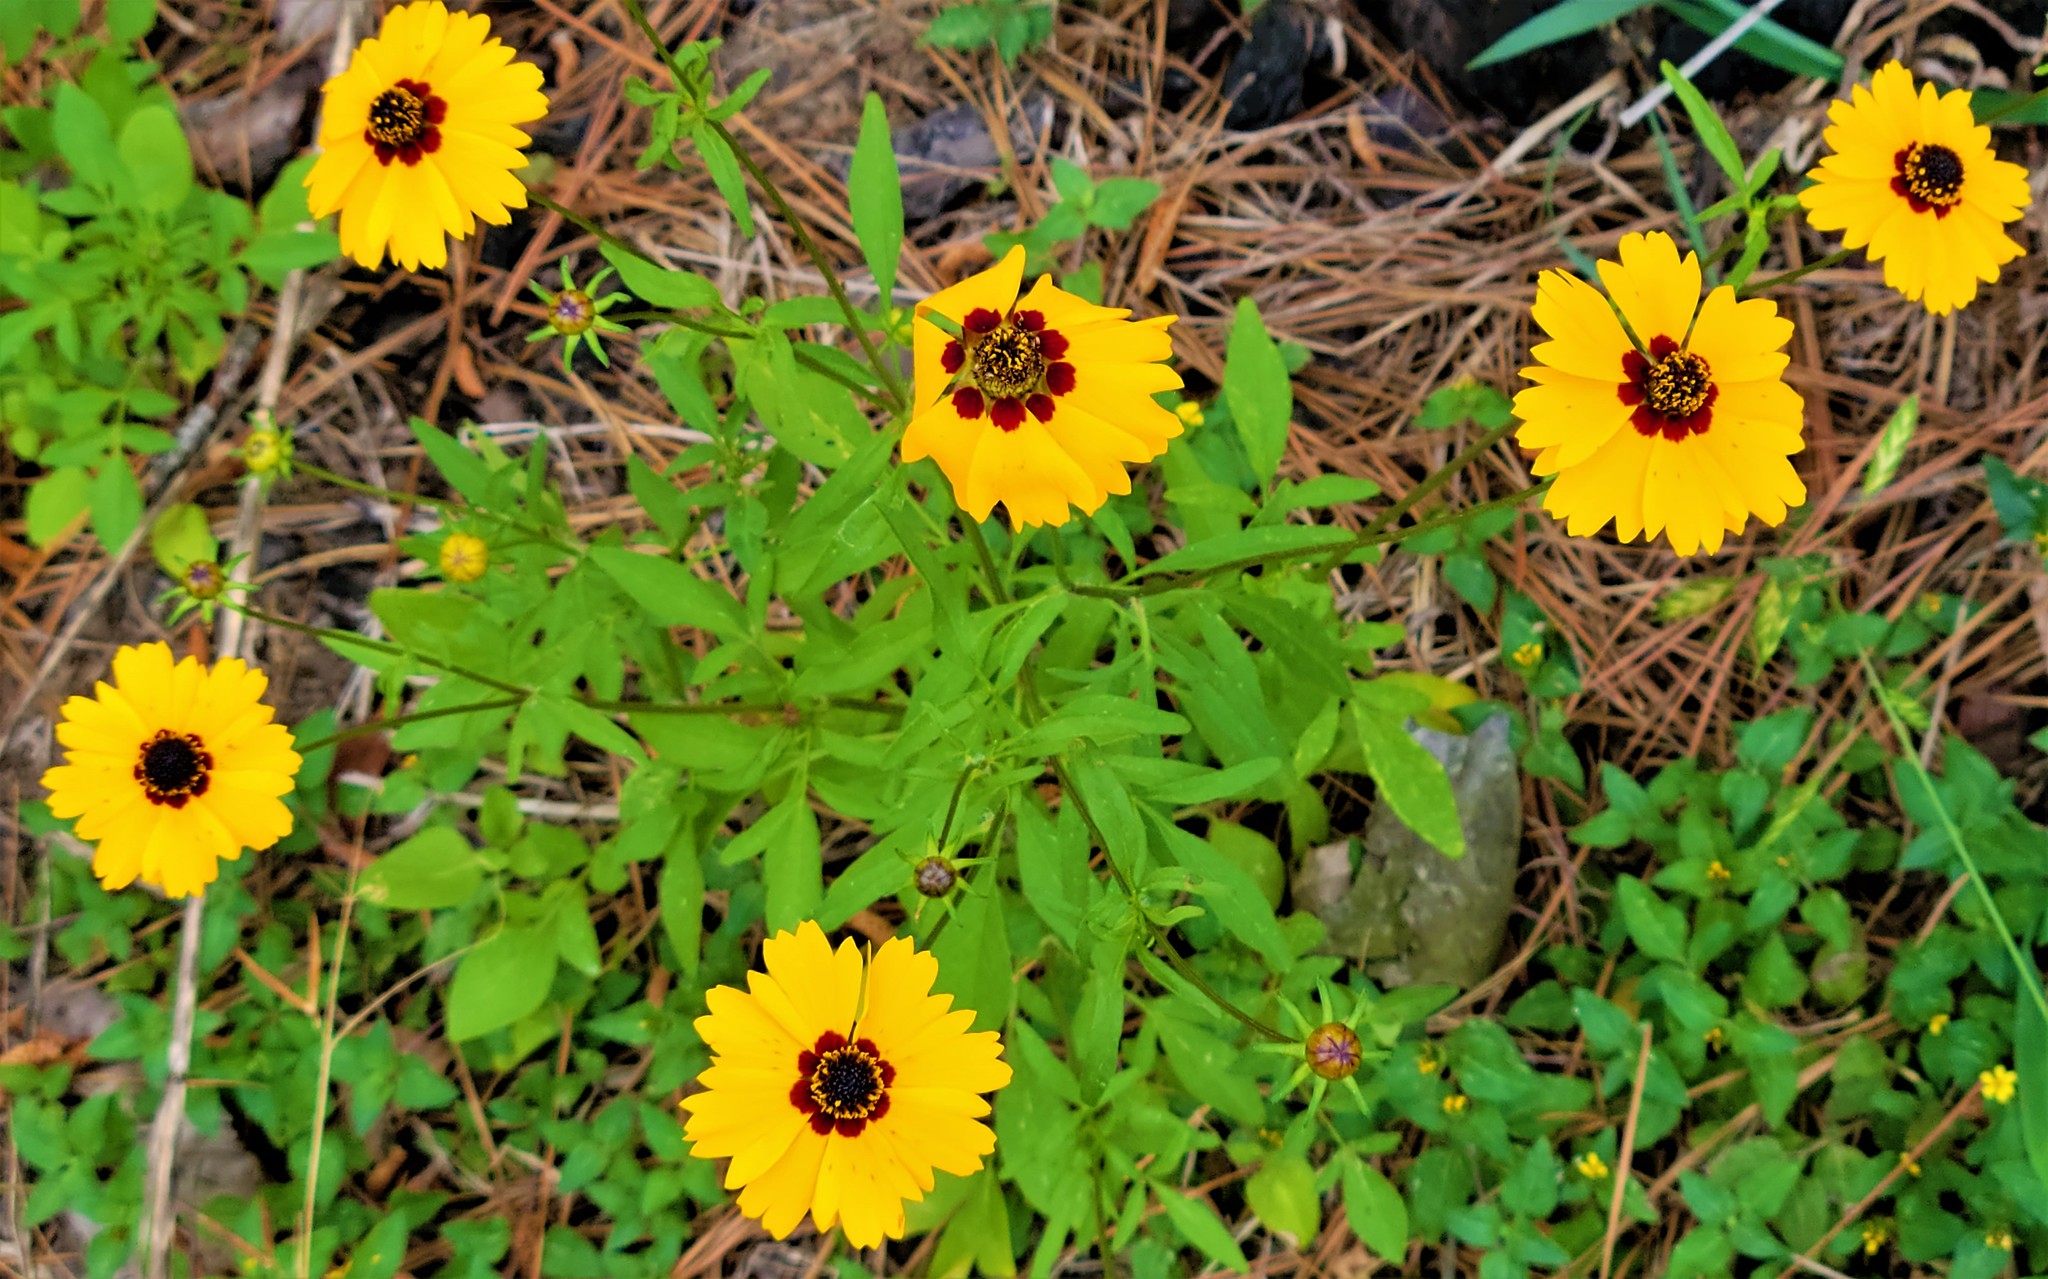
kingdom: Plantae
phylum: Tracheophyta
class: Magnoliopsida
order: Asterales
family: Asteraceae
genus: Coreopsis
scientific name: Coreopsis basalis
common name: Golden-mane coreopsis
